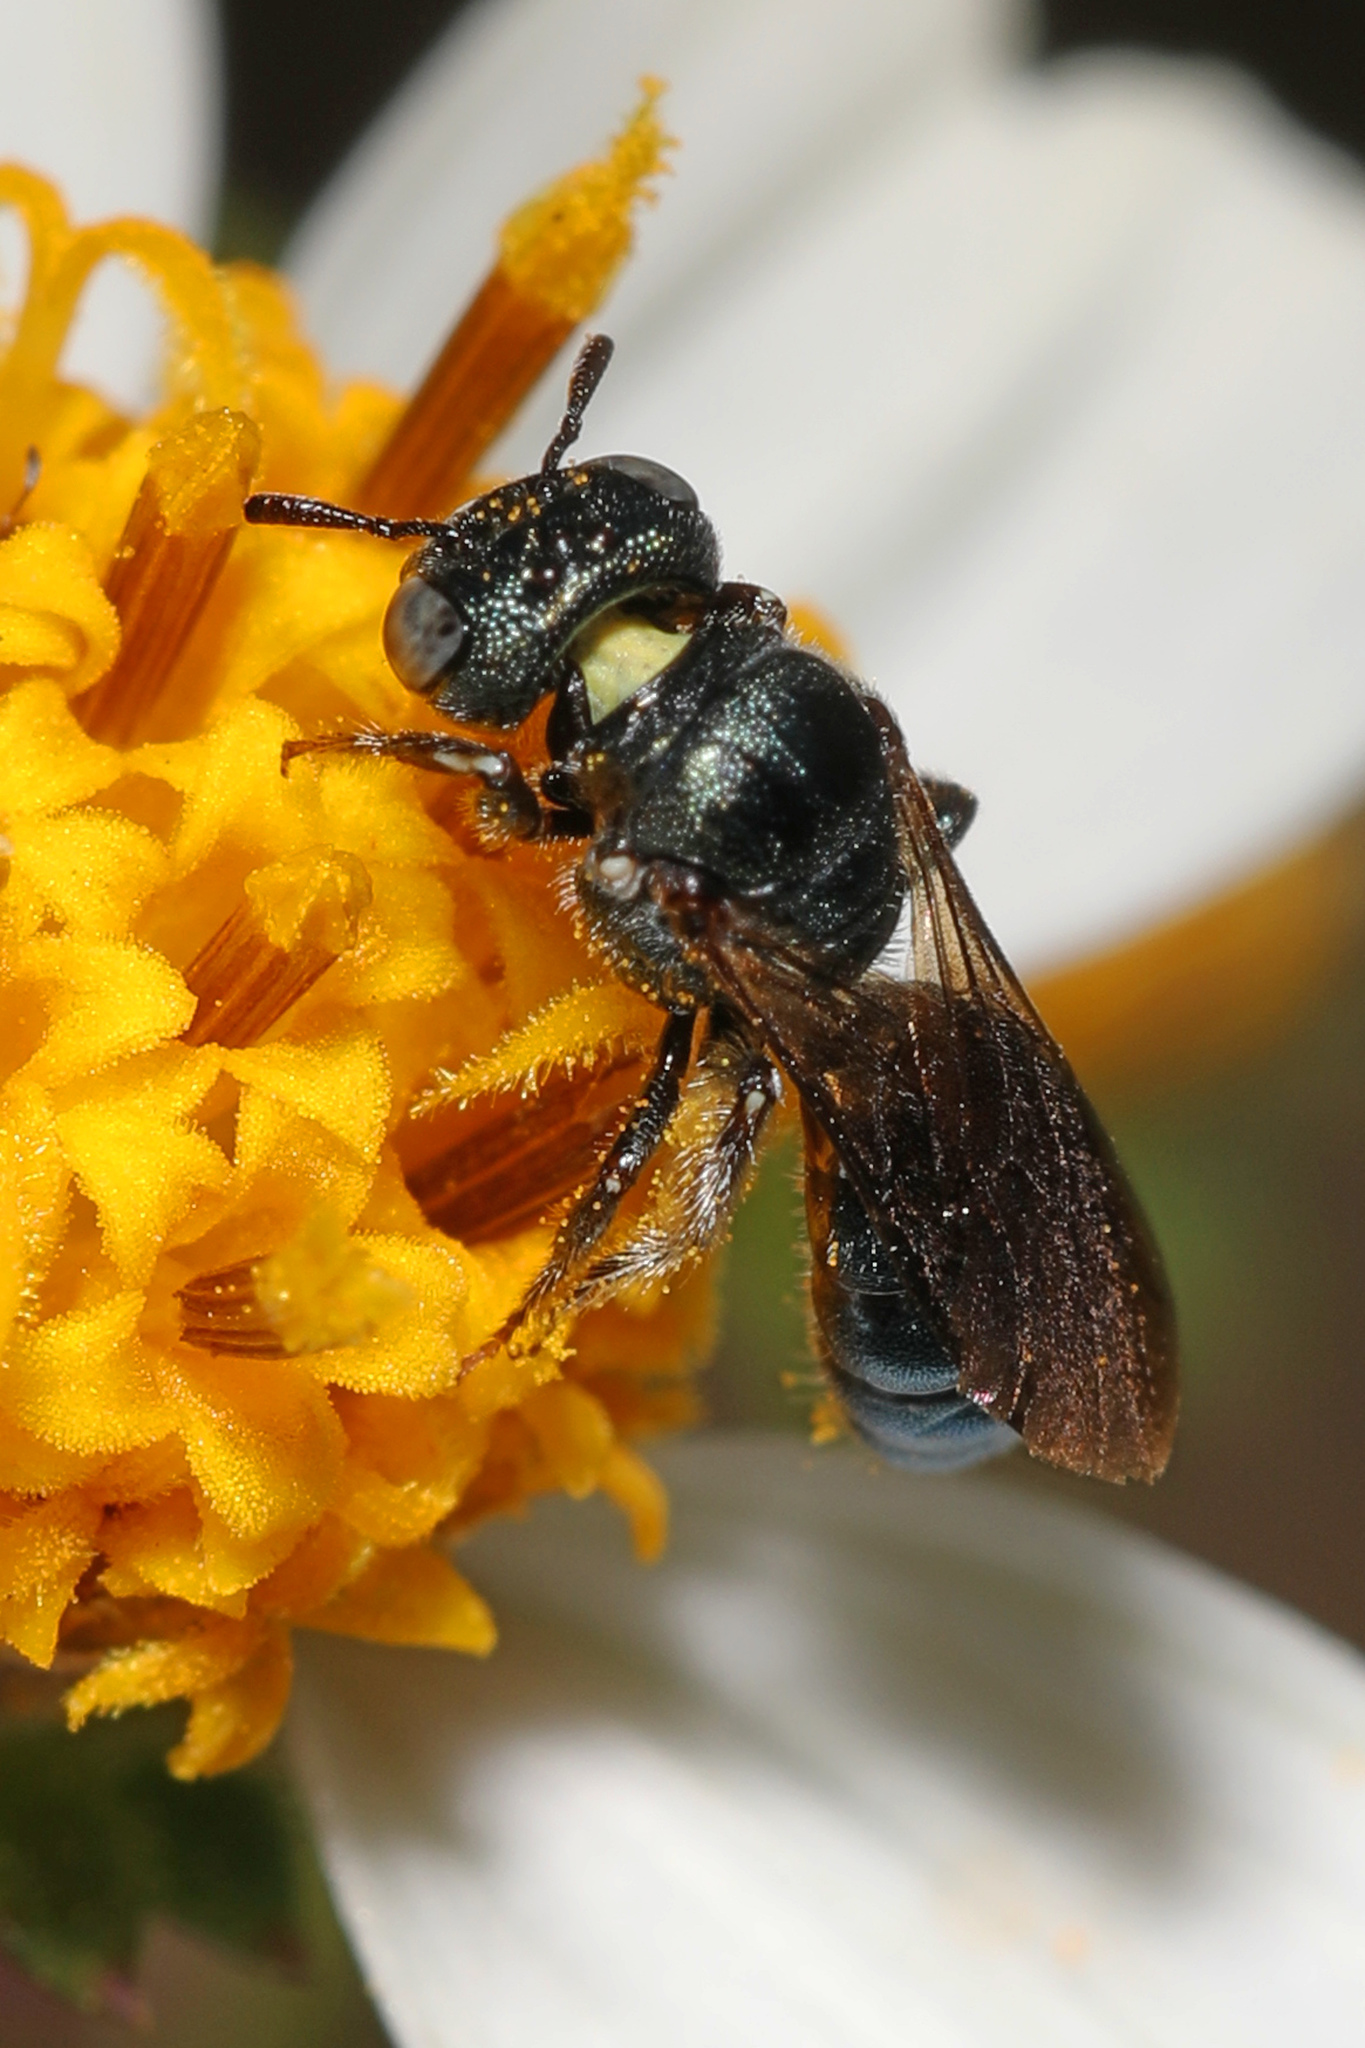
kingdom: Animalia
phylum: Arthropoda
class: Insecta
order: Hymenoptera
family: Apidae
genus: Ceratina
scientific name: Ceratina floridana
